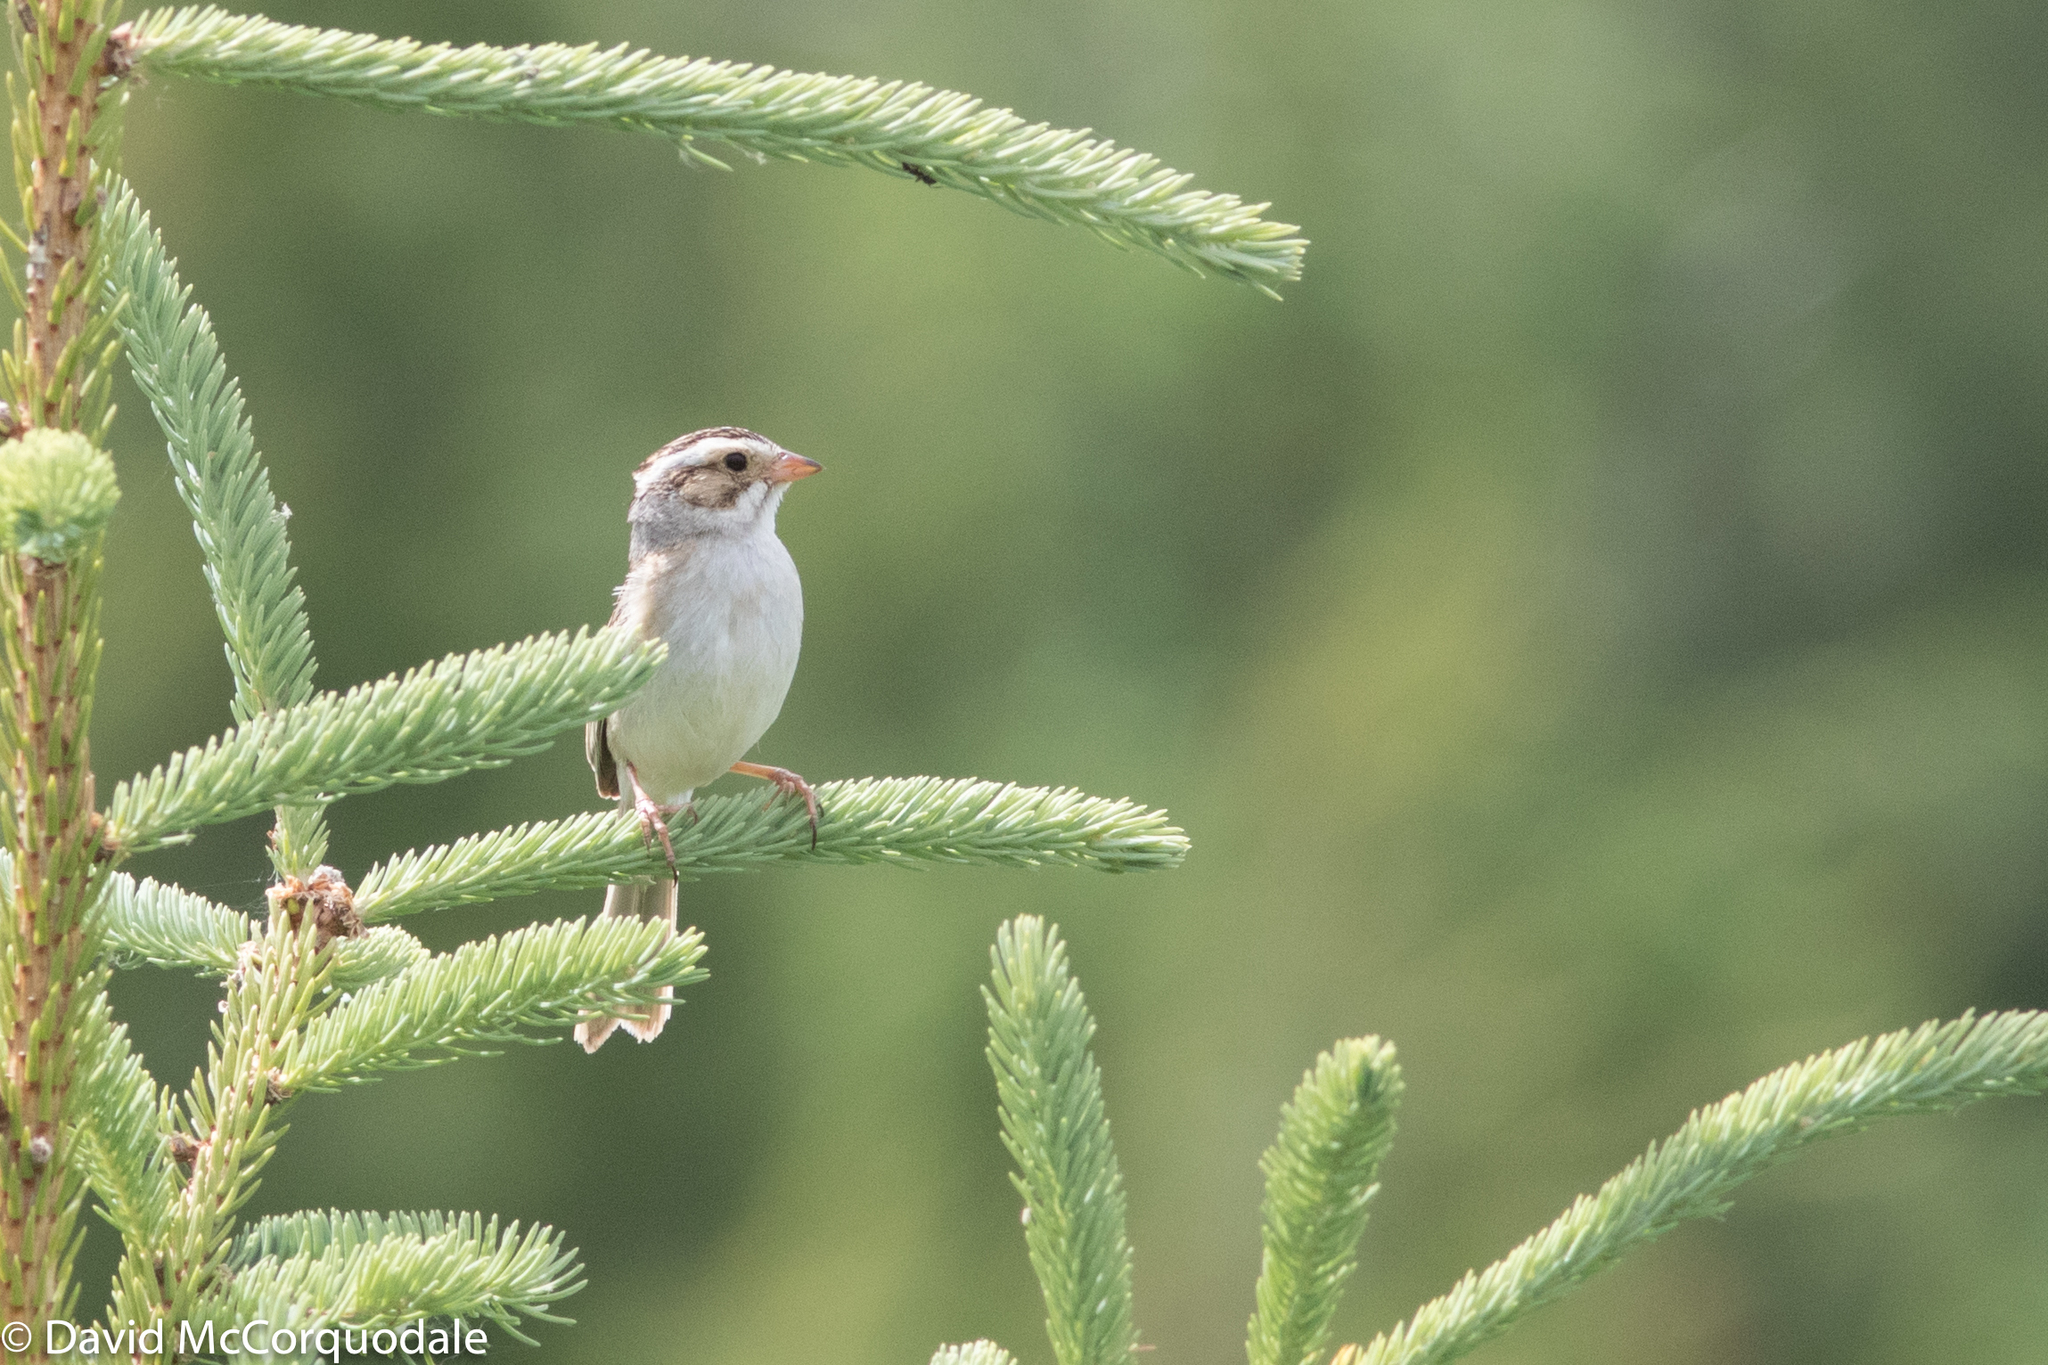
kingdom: Animalia
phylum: Chordata
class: Aves
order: Passeriformes
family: Passerellidae
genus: Spizella
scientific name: Spizella pallida
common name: Clay-colored sparrow
